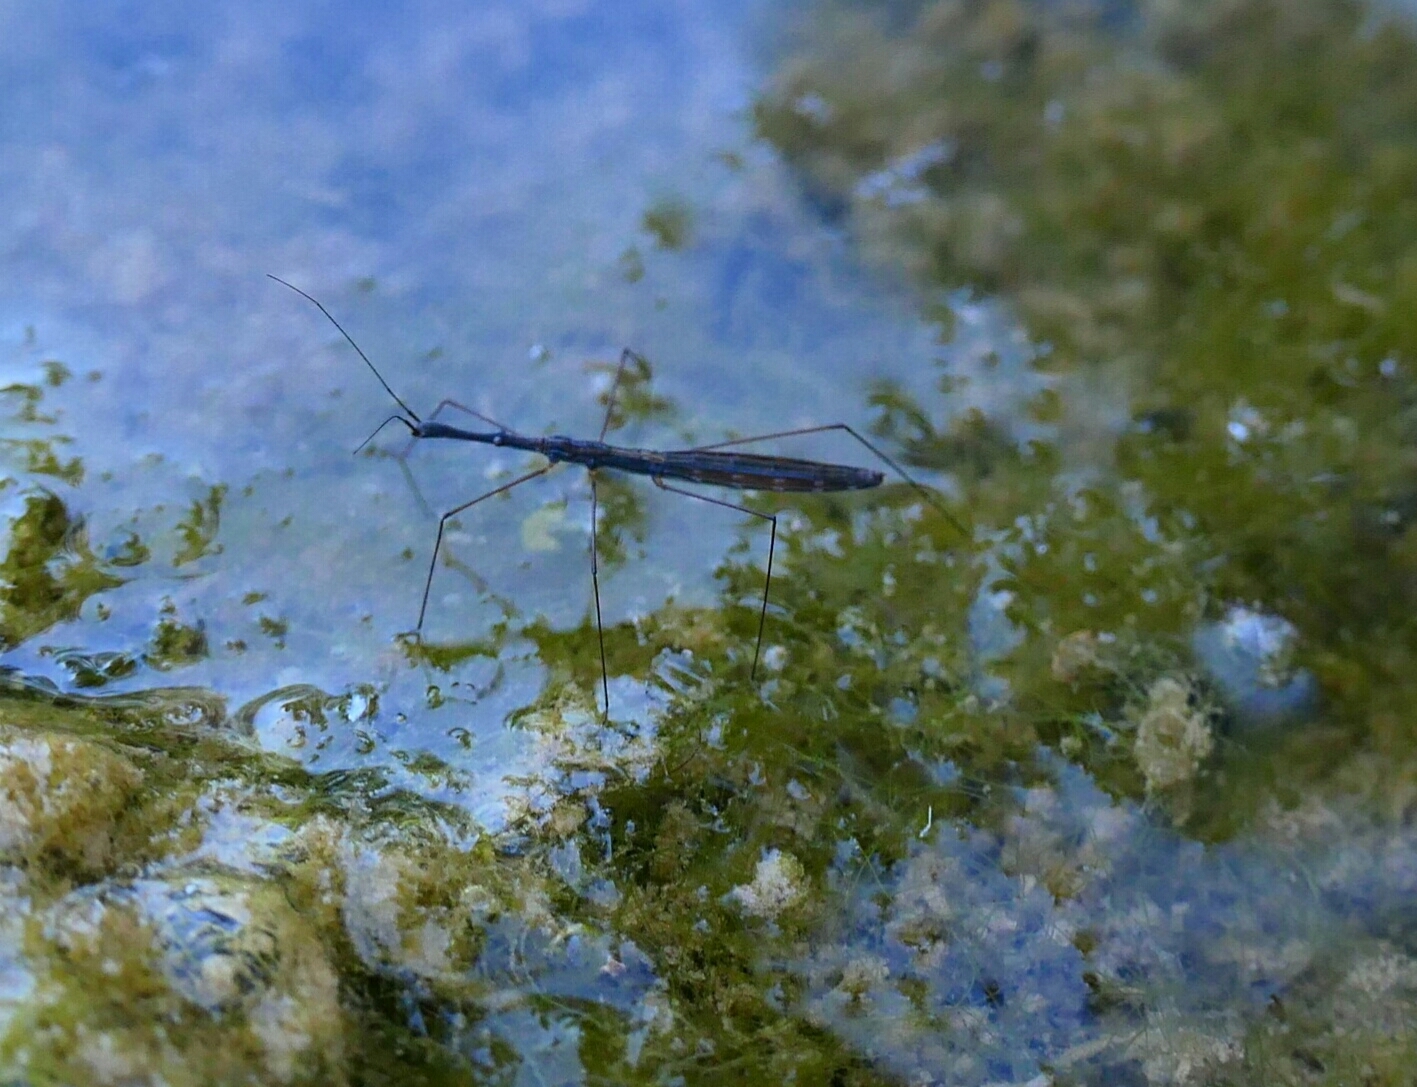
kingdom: Animalia
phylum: Arthropoda
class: Insecta
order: Hemiptera
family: Hydrometridae
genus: Hydrometra
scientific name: Hydrometra stagnorum
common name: Water measurer
